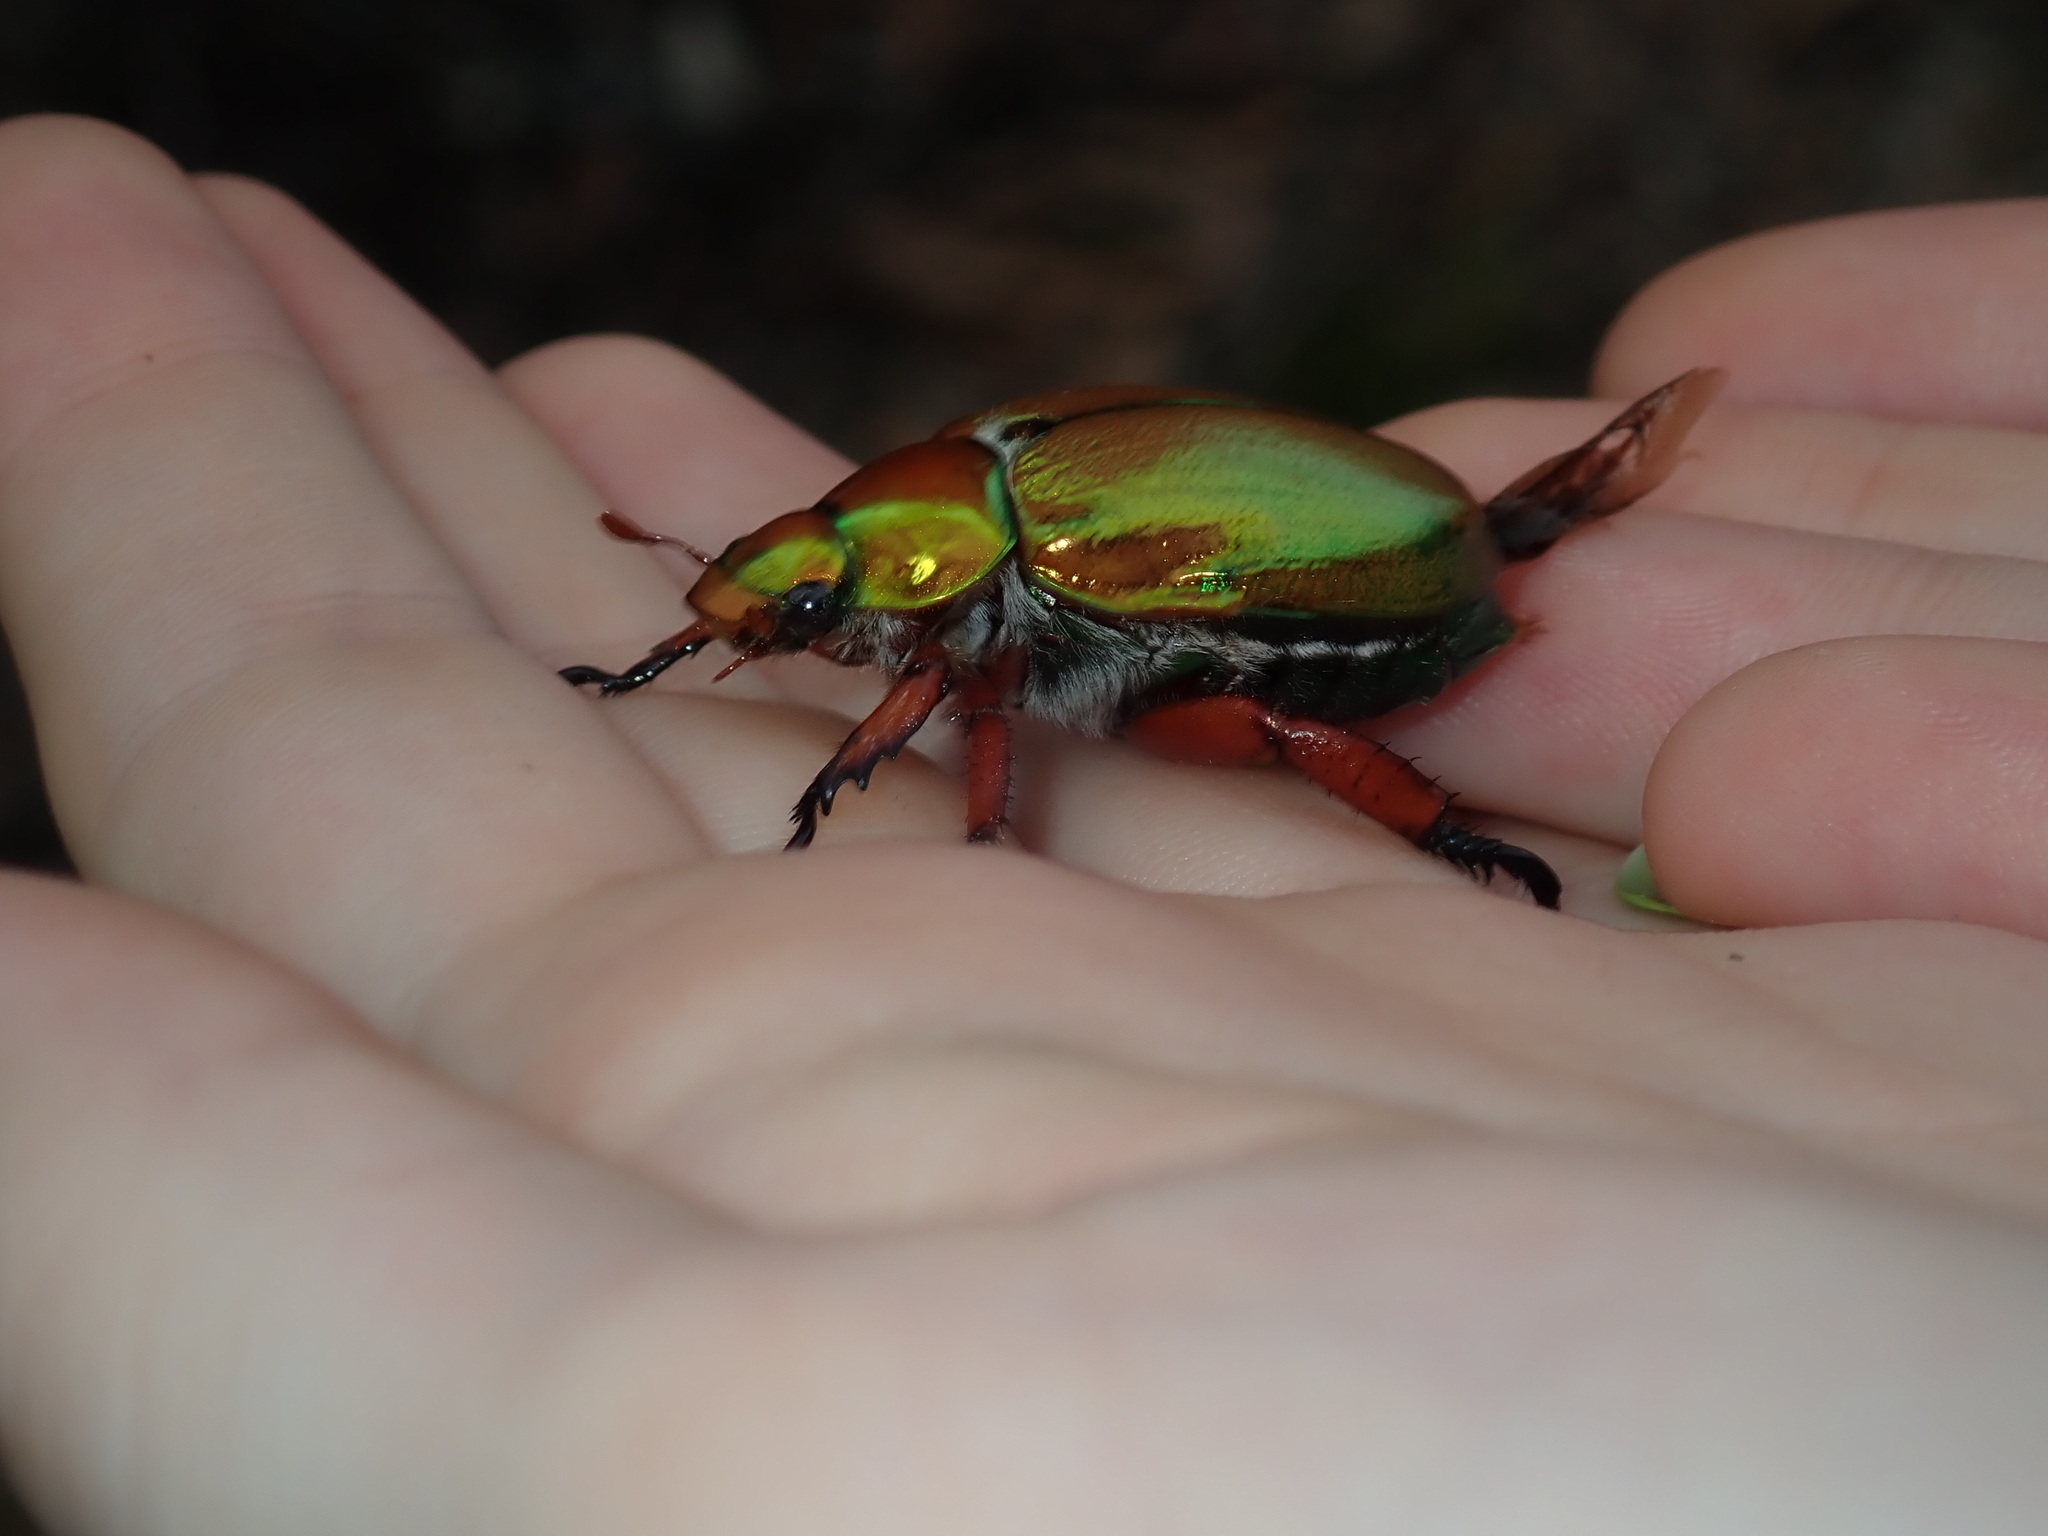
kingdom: Animalia
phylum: Arthropoda
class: Insecta
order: Coleoptera
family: Scarabaeidae
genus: Anoplognathus
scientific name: Anoplognathus viridiaeneus
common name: King christmas beetle
